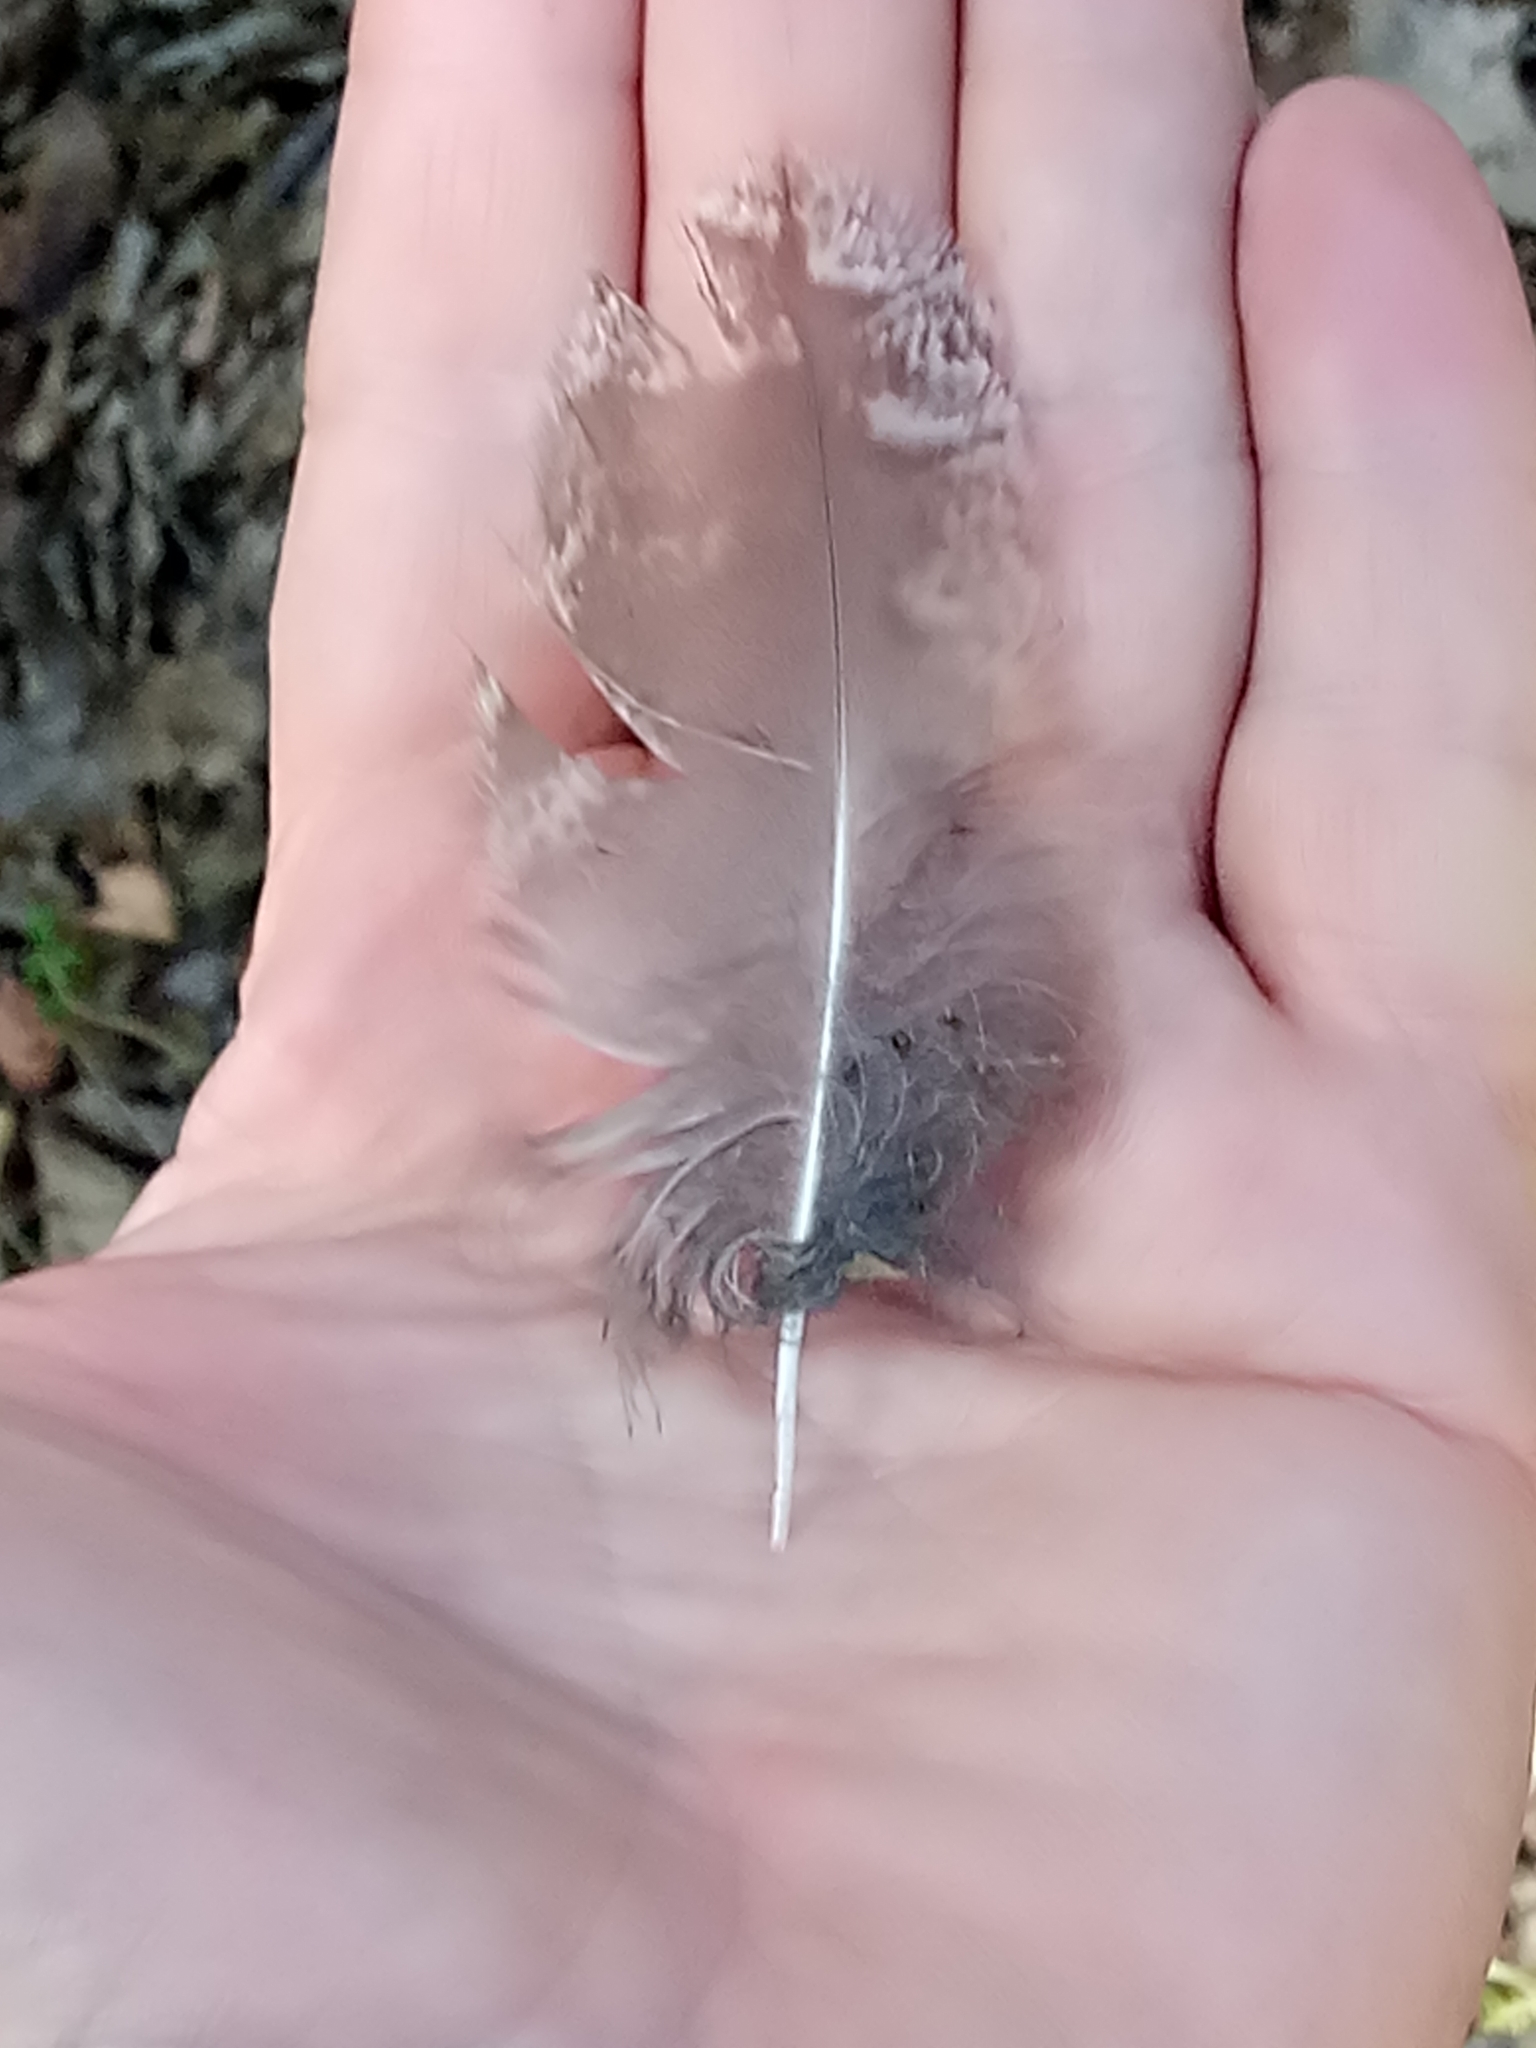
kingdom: Animalia
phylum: Chordata
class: Aves
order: Strigiformes
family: Strigidae
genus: Strix
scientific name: Strix aluco
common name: Tawny owl
